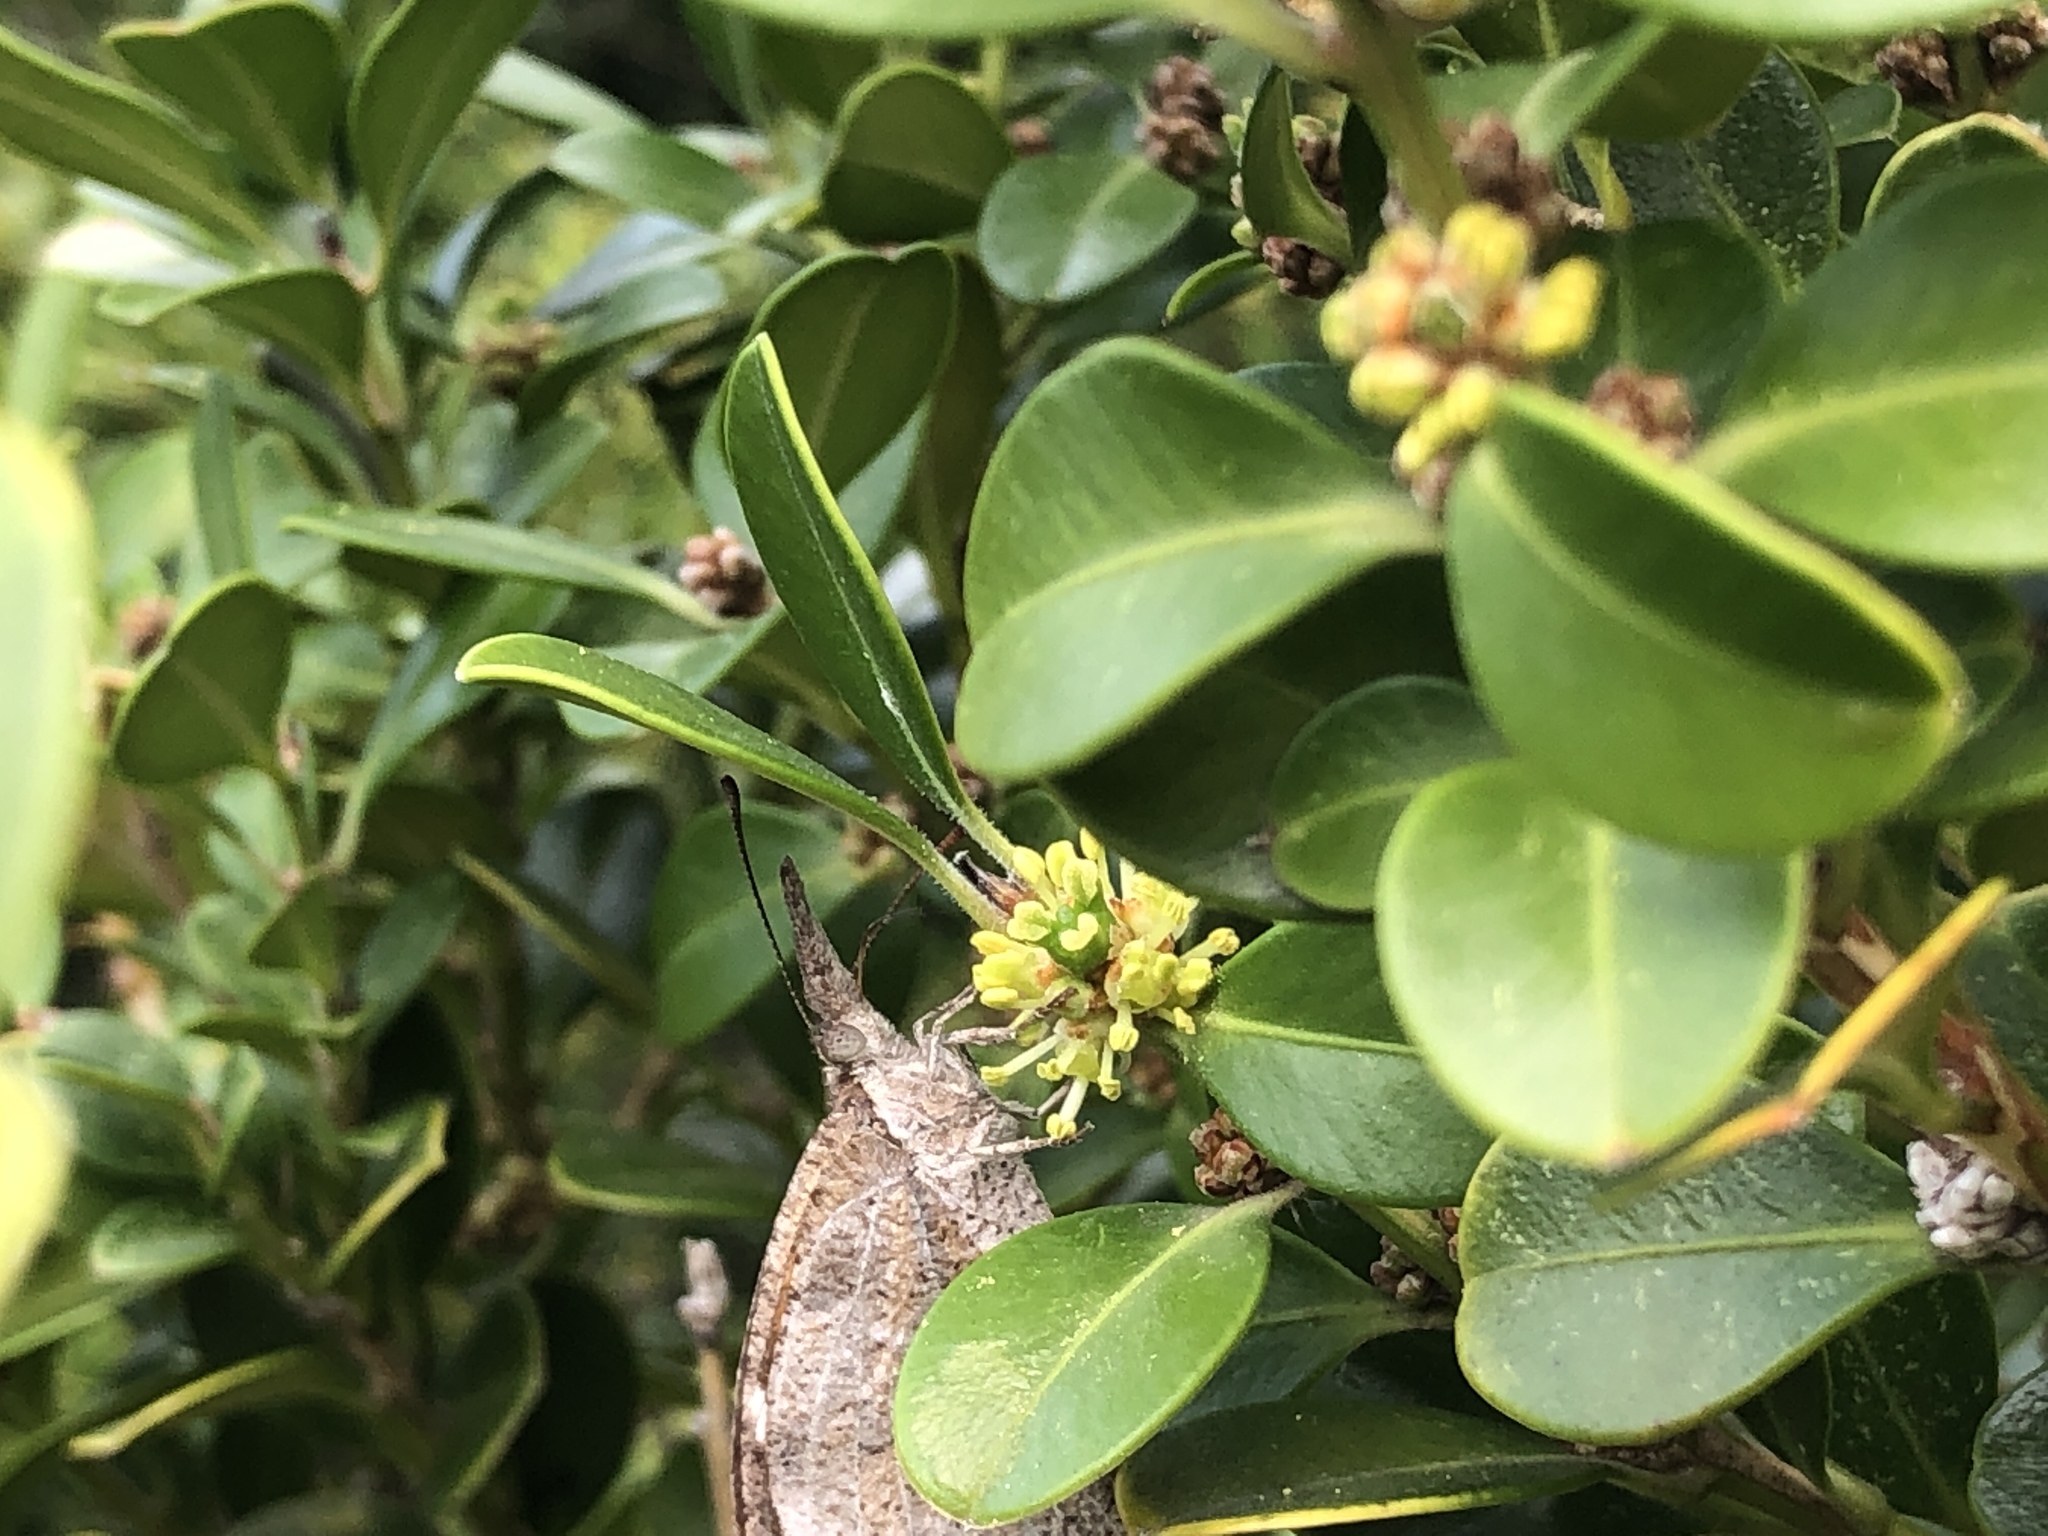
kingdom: Animalia
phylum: Arthropoda
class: Insecta
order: Lepidoptera
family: Nymphalidae
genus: Libytheana
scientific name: Libytheana carinenta
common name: American snout
